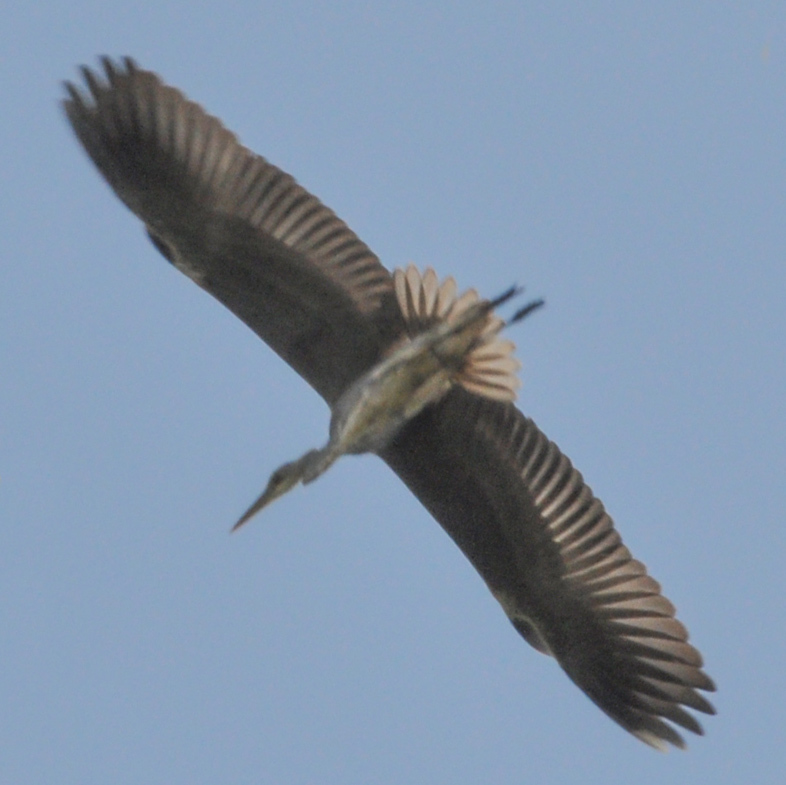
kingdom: Animalia
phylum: Chordata
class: Aves
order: Pelecaniformes
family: Ardeidae
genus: Ardea
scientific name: Ardea cinerea
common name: Grey heron
